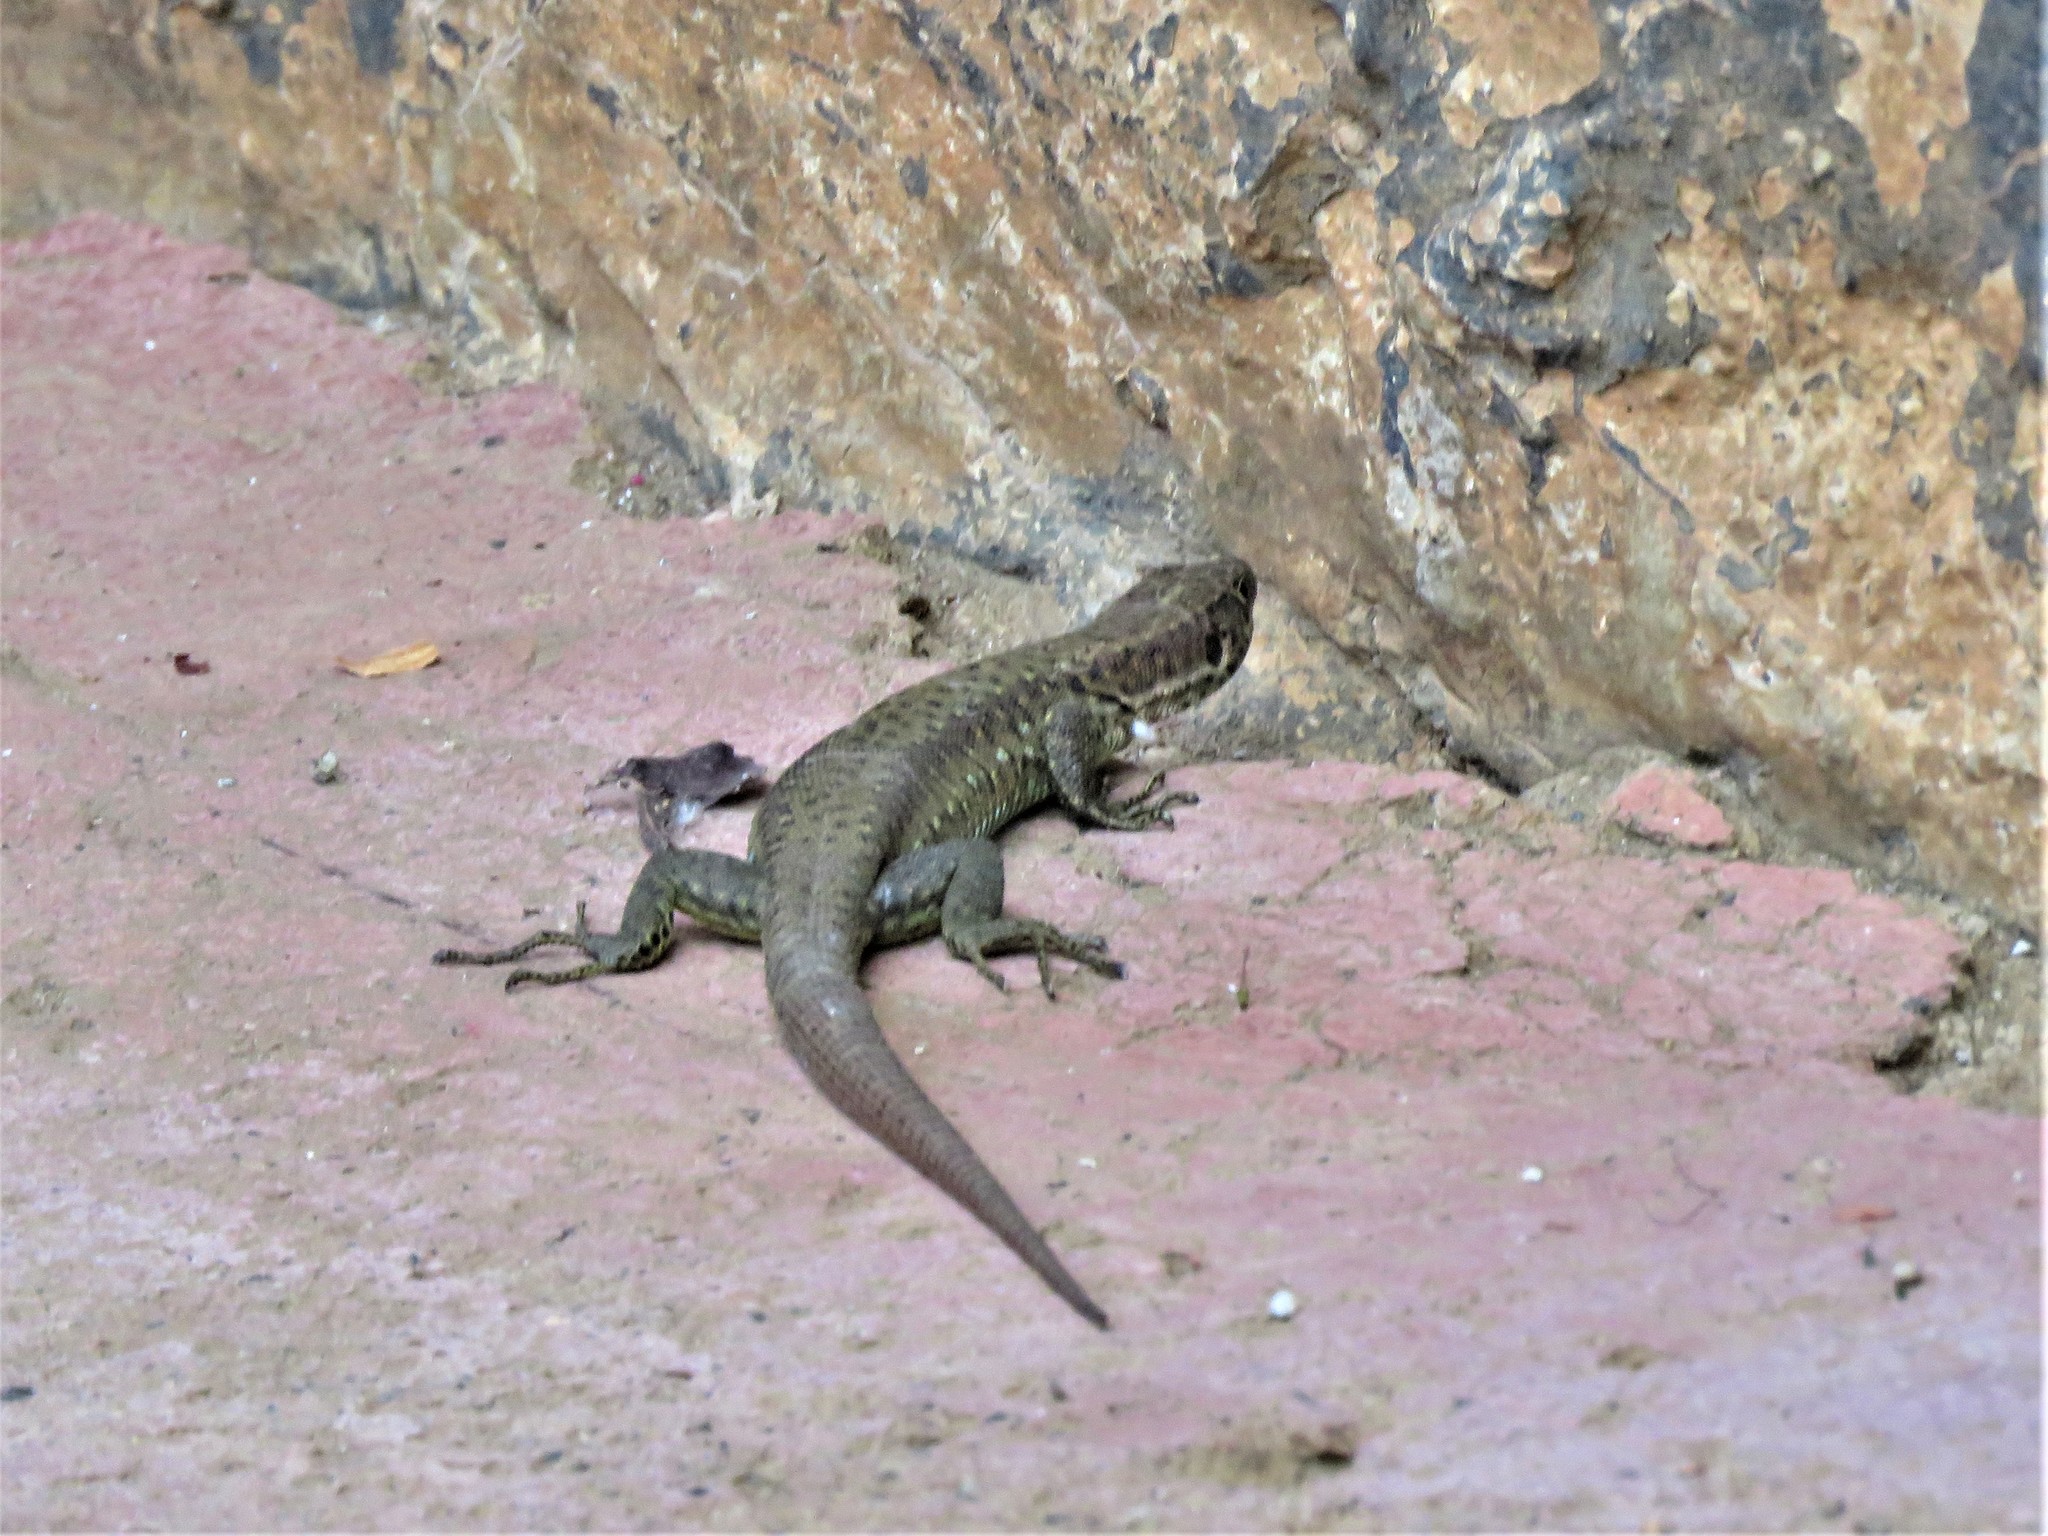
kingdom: Animalia
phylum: Chordata
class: Squamata
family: Lacertidae
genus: Adolfus
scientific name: Adolfus jacksoni
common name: Jackson’s forest lizard
